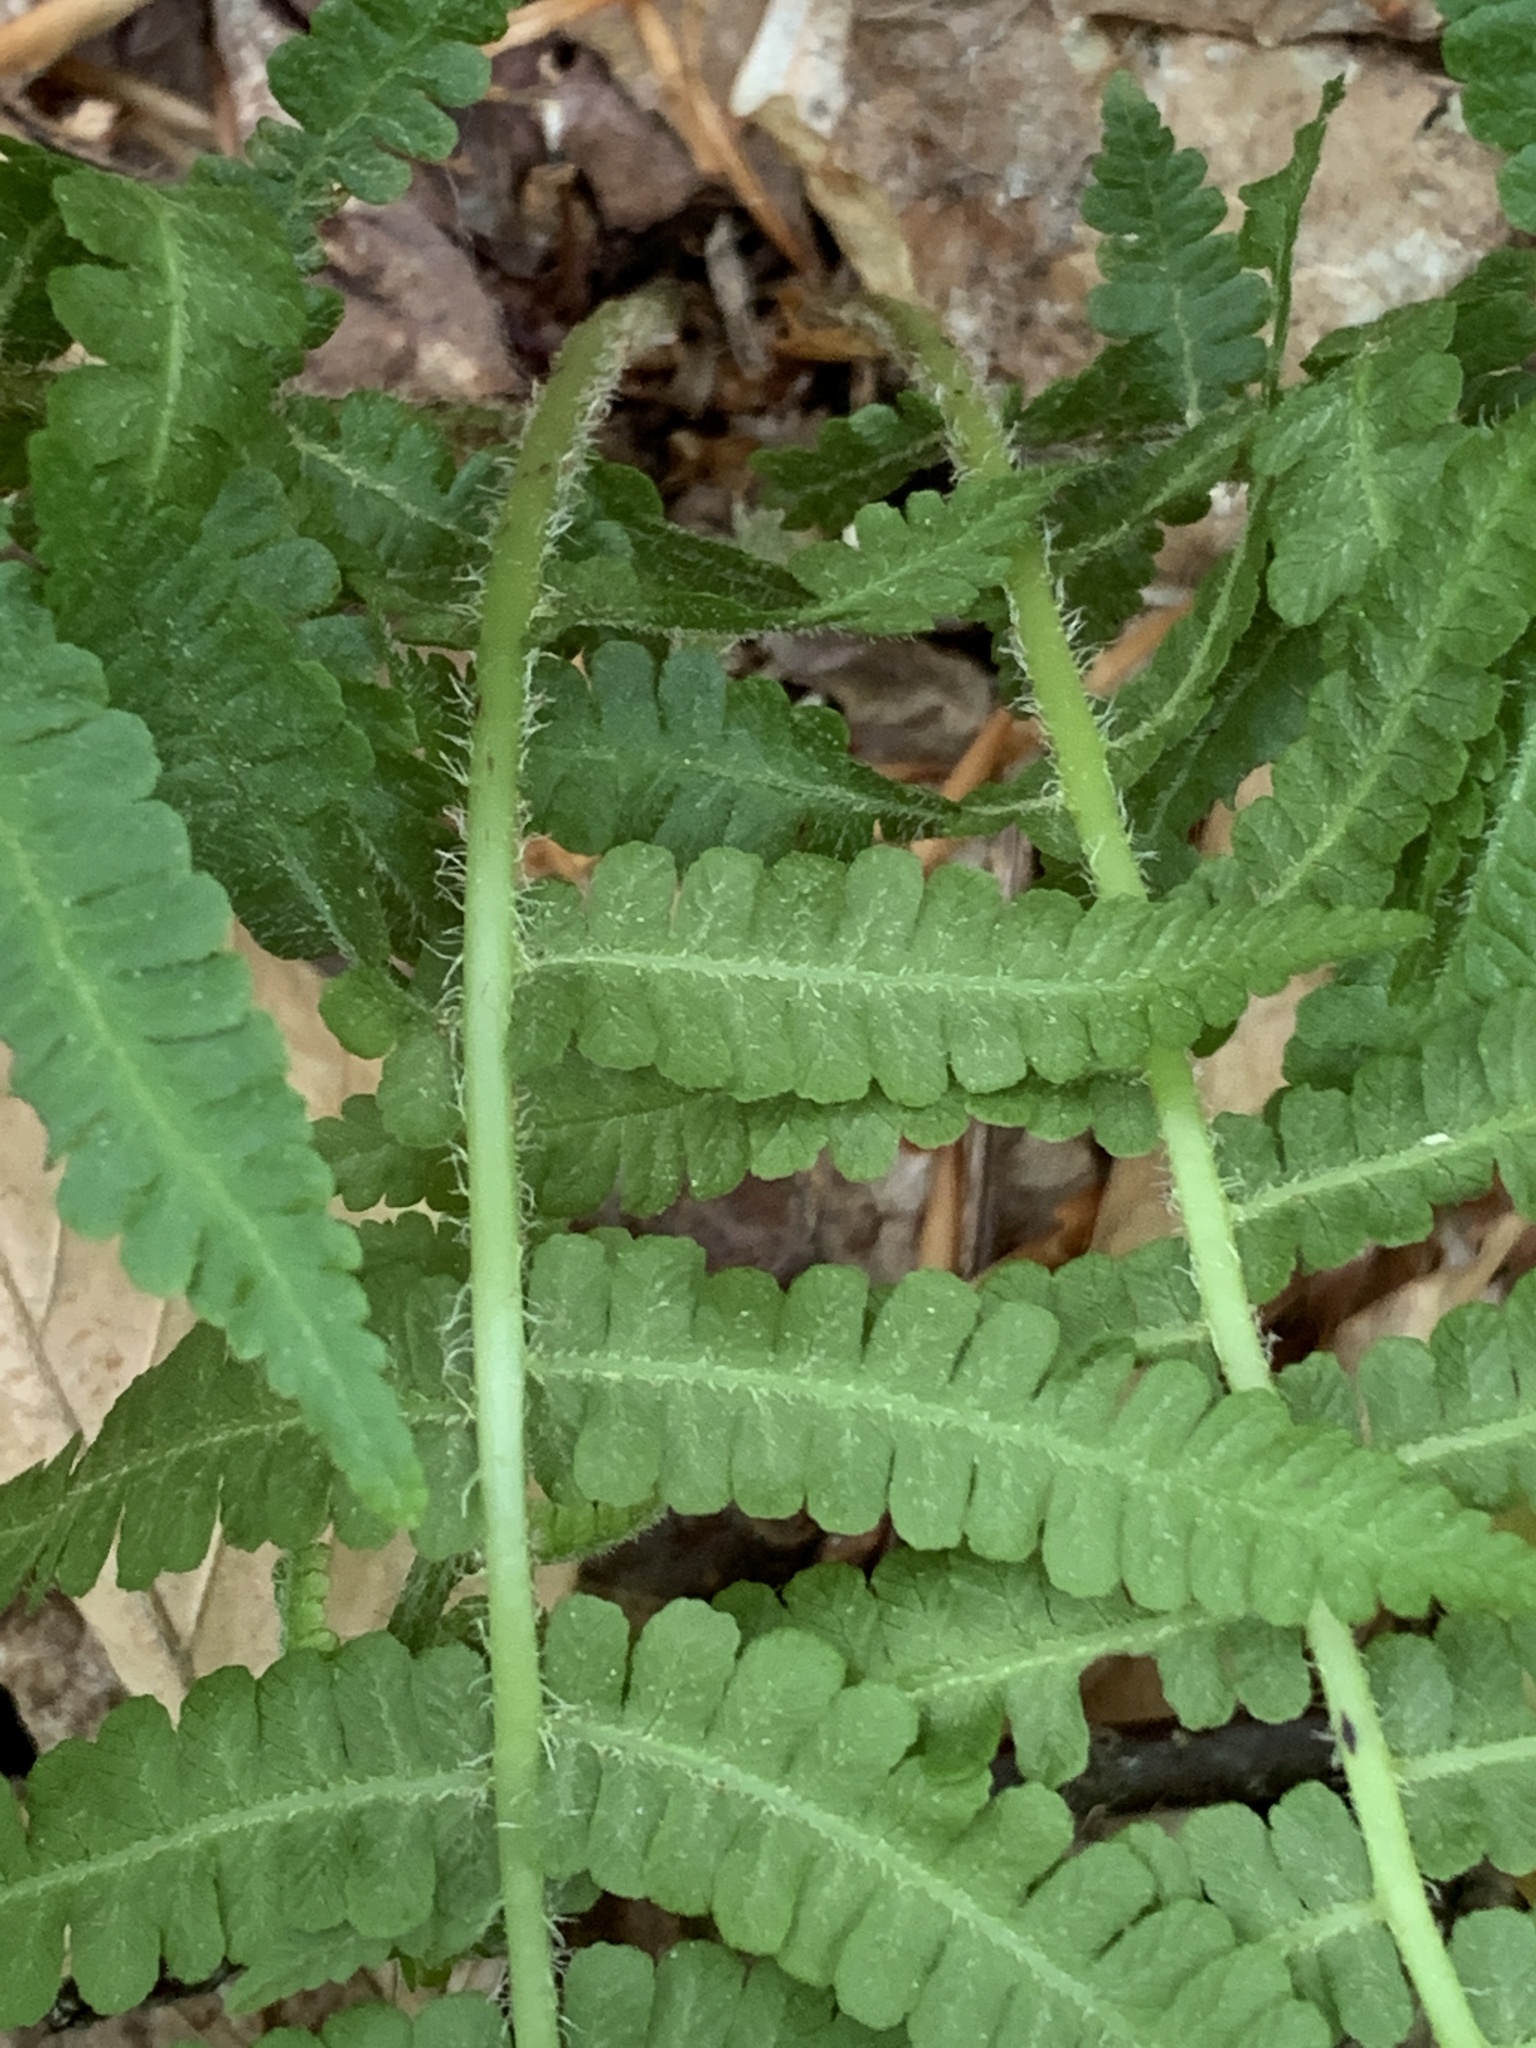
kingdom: Plantae
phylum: Tracheophyta
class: Polypodiopsida
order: Polypodiales
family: Athyriaceae
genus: Deparia
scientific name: Deparia acrostichoides
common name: Silver false spleenwort
